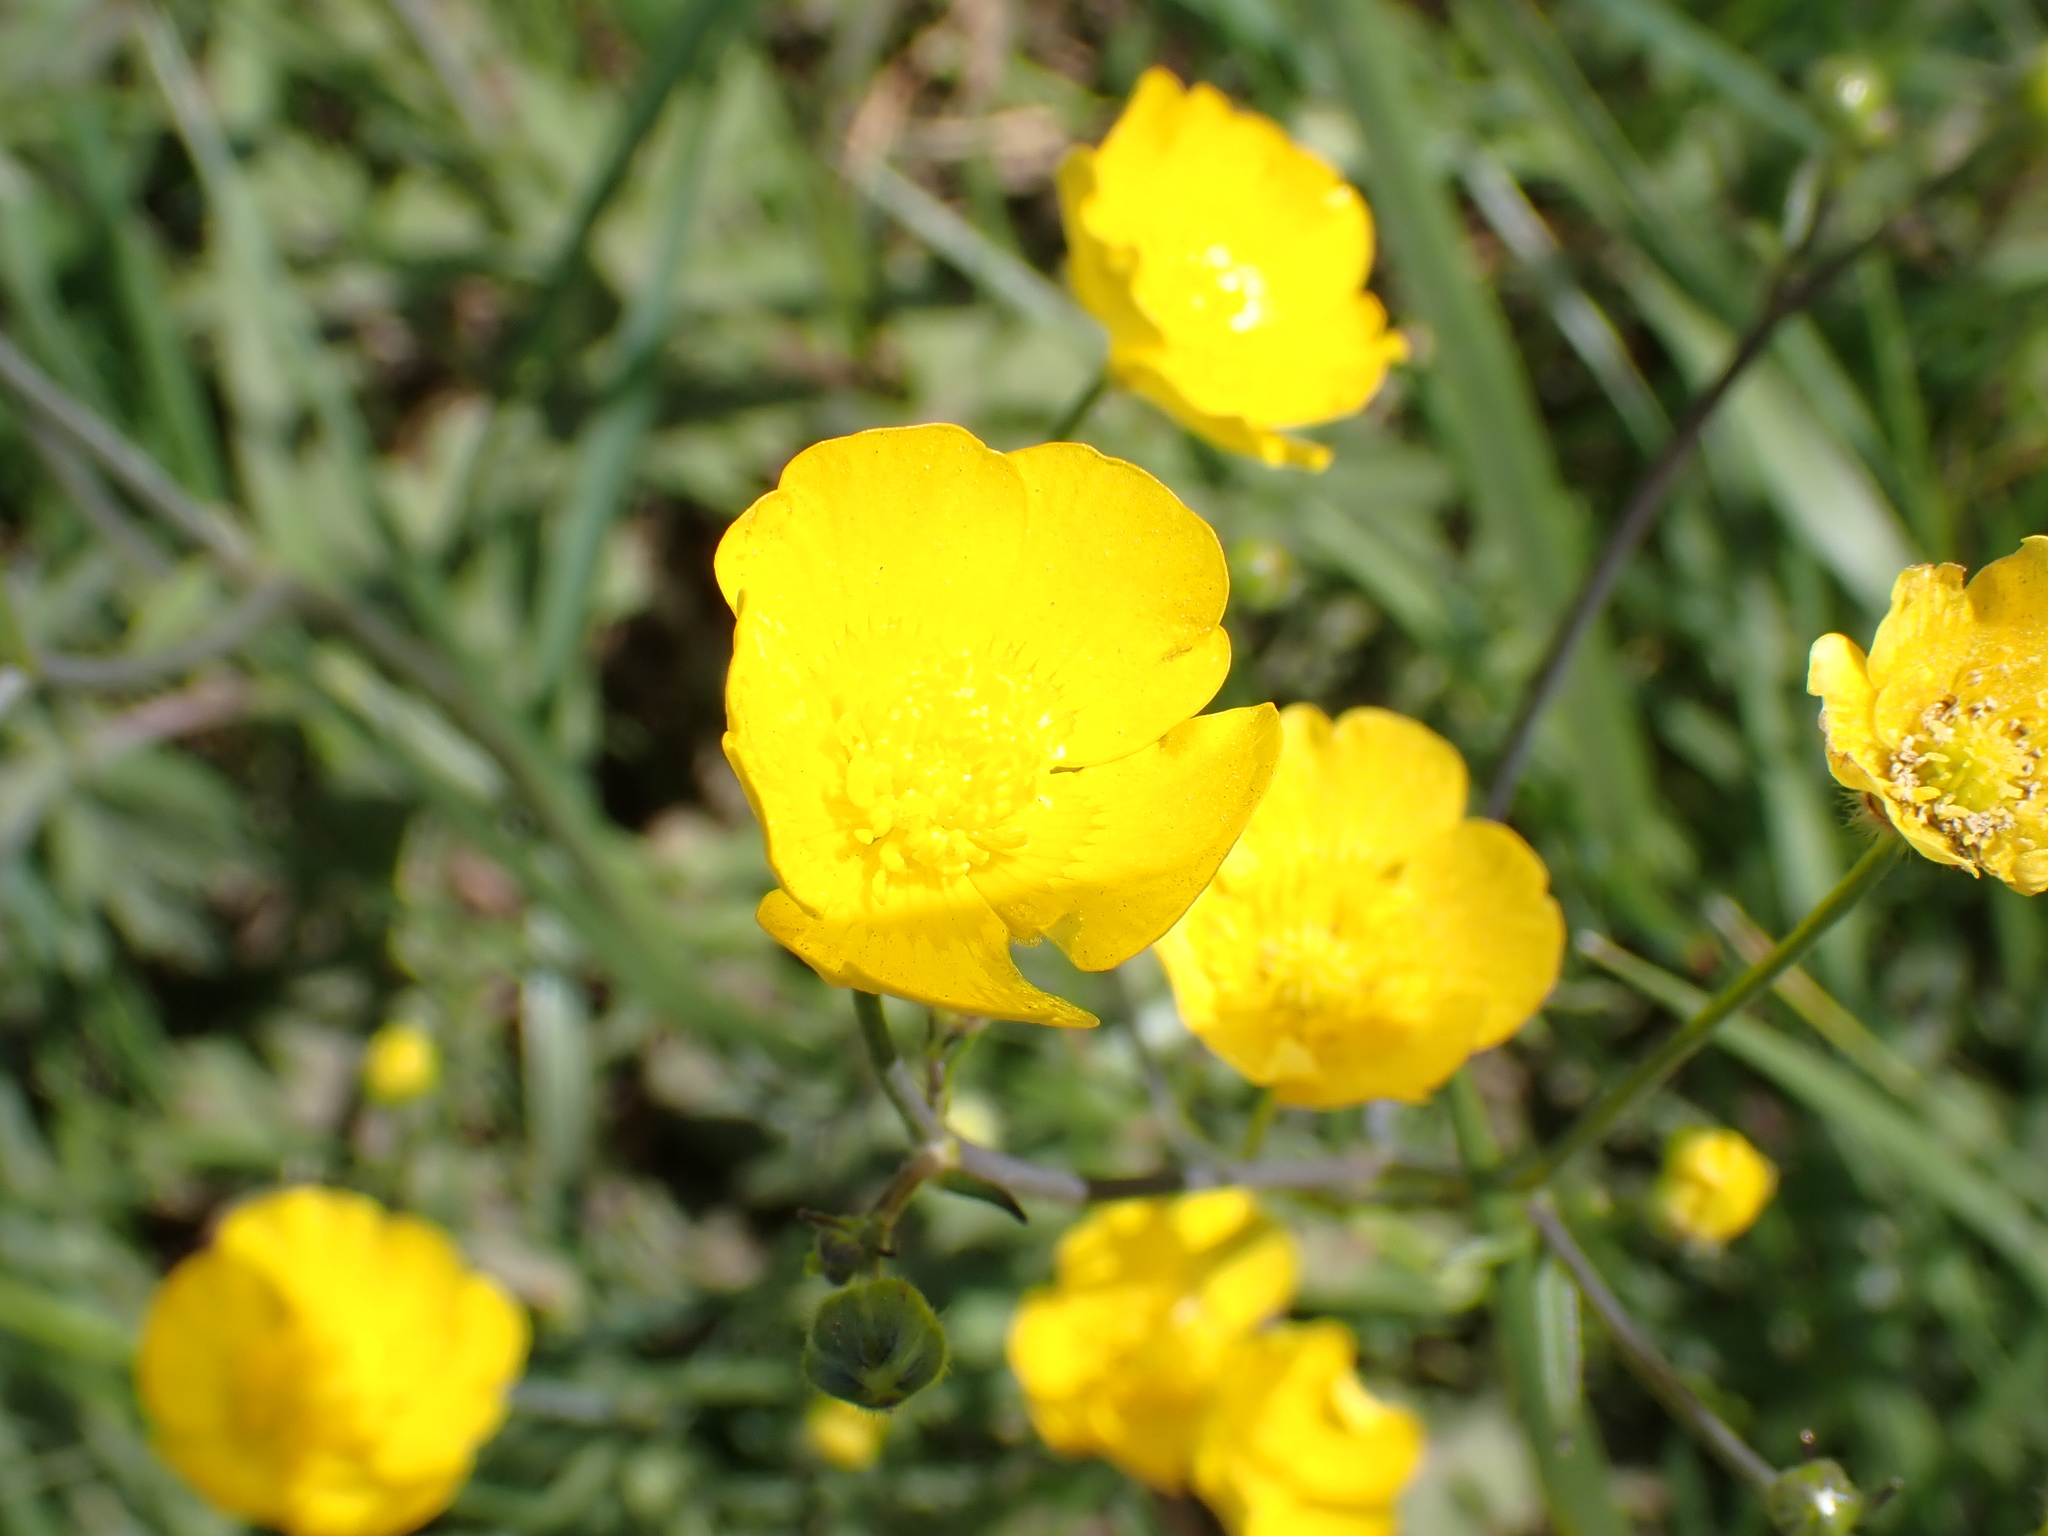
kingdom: Plantae
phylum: Tracheophyta
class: Magnoliopsida
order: Ranunculales
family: Ranunculaceae
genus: Ranunculus
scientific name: Ranunculus acris
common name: Meadow buttercup
